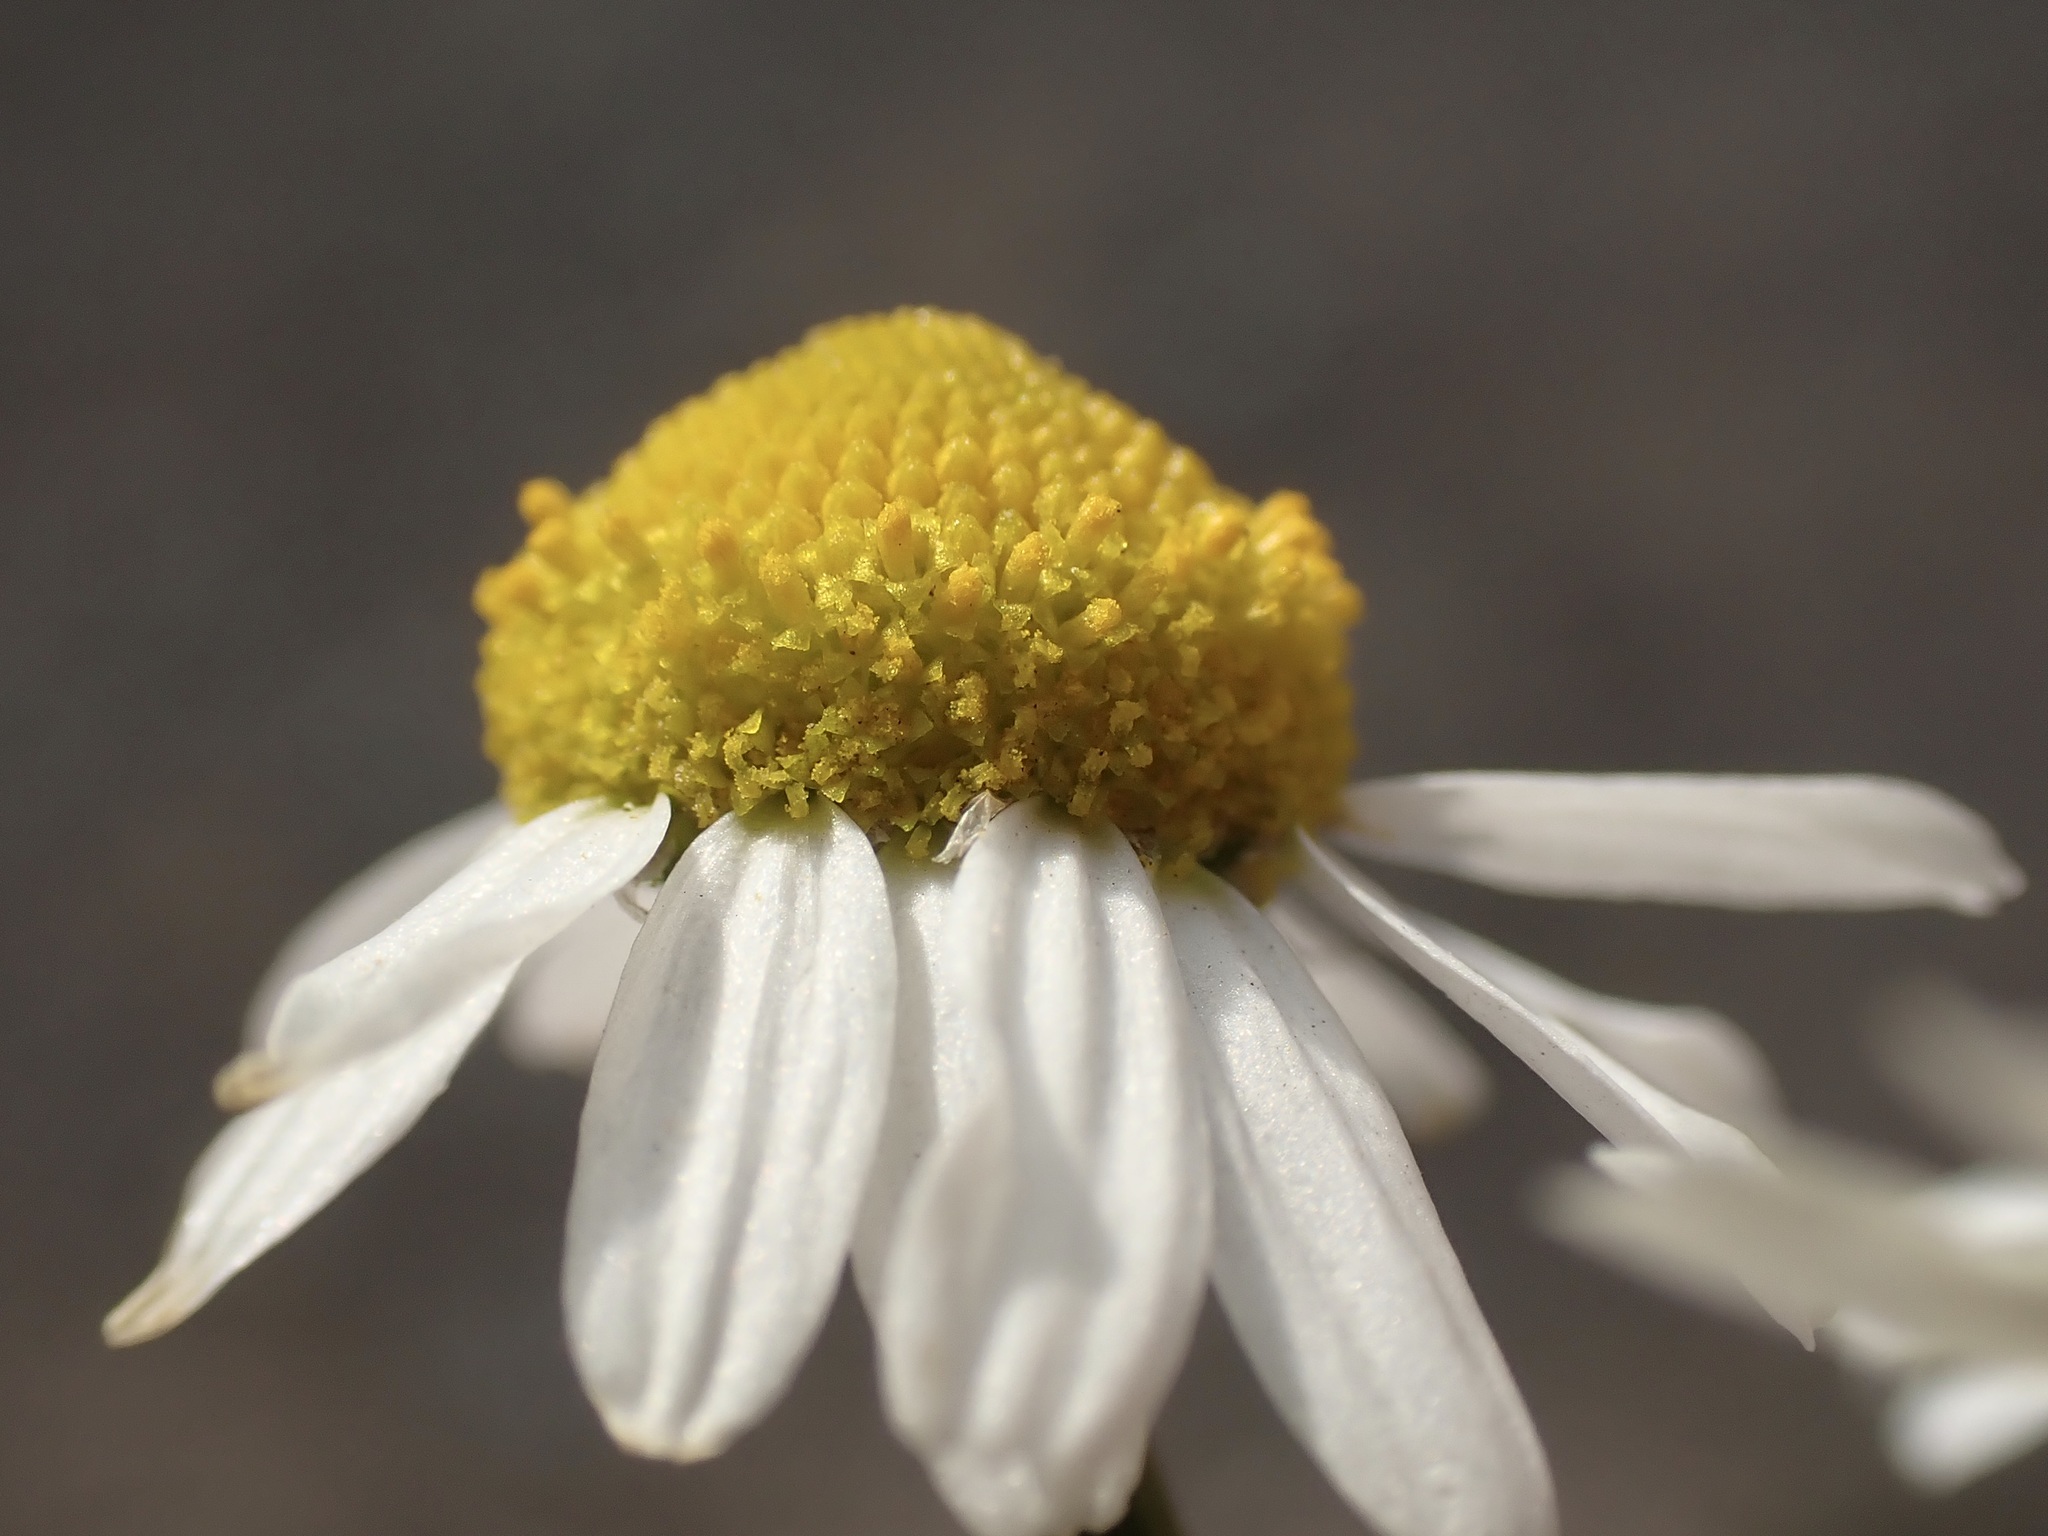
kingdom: Plantae
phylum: Tracheophyta
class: Magnoliopsida
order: Asterales
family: Asteraceae
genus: Matricaria
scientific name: Matricaria chamomilla
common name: Scented mayweed
